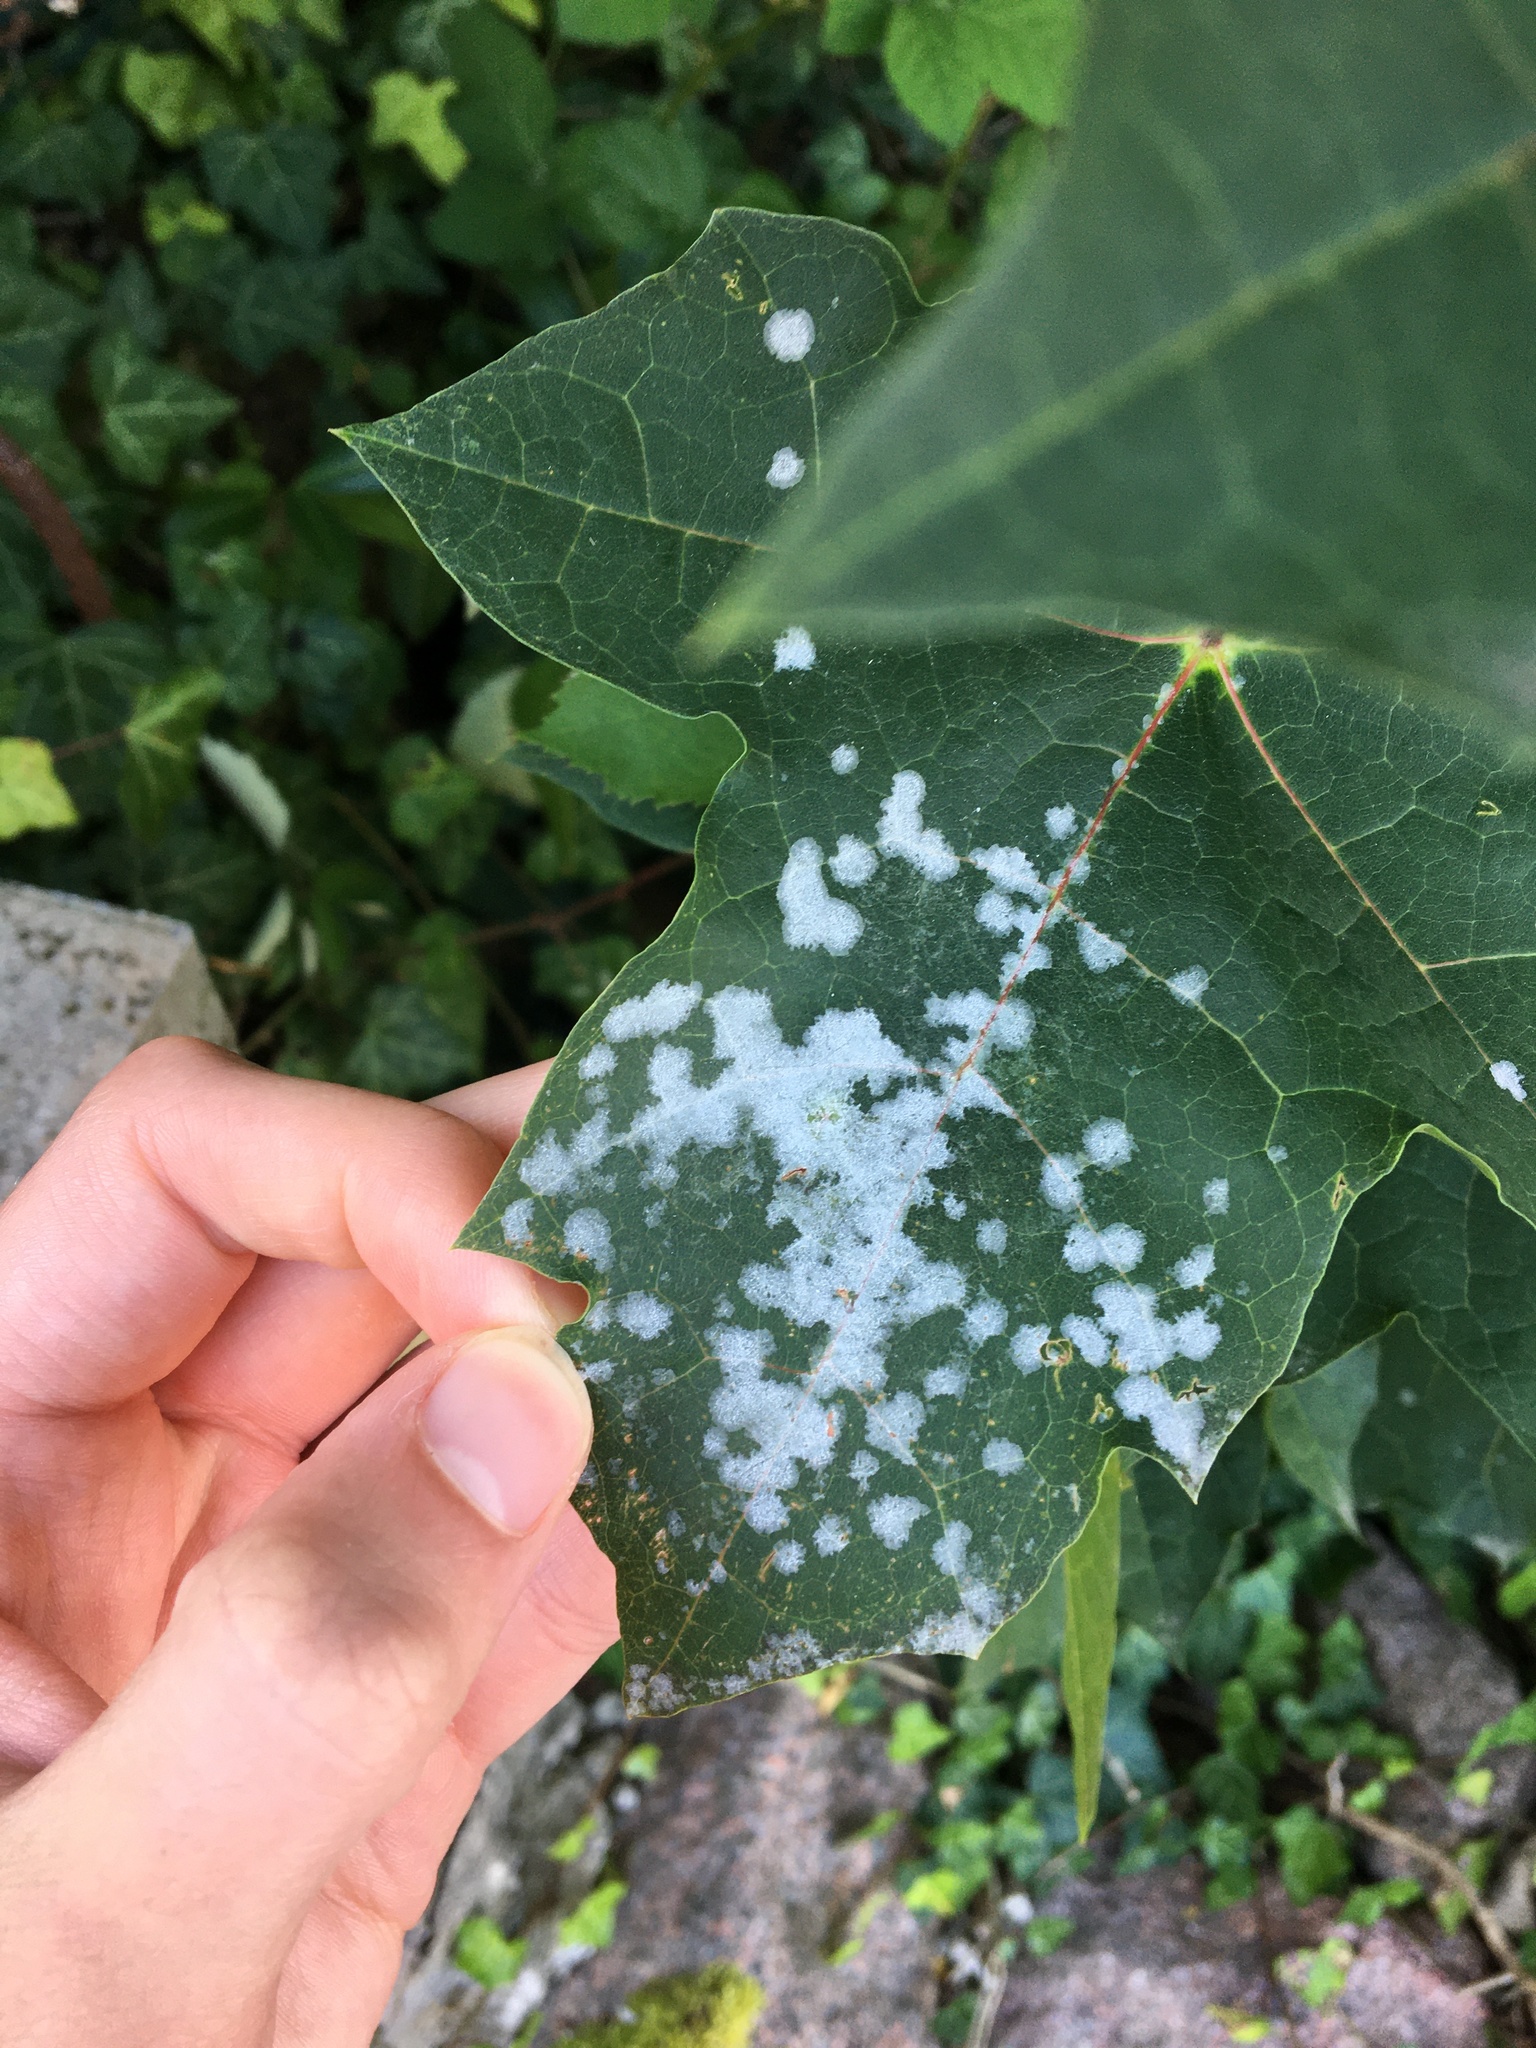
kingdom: Fungi
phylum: Ascomycota
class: Leotiomycetes
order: Helotiales
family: Erysiphaceae
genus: Sawadaea
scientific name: Sawadaea tulasnei
